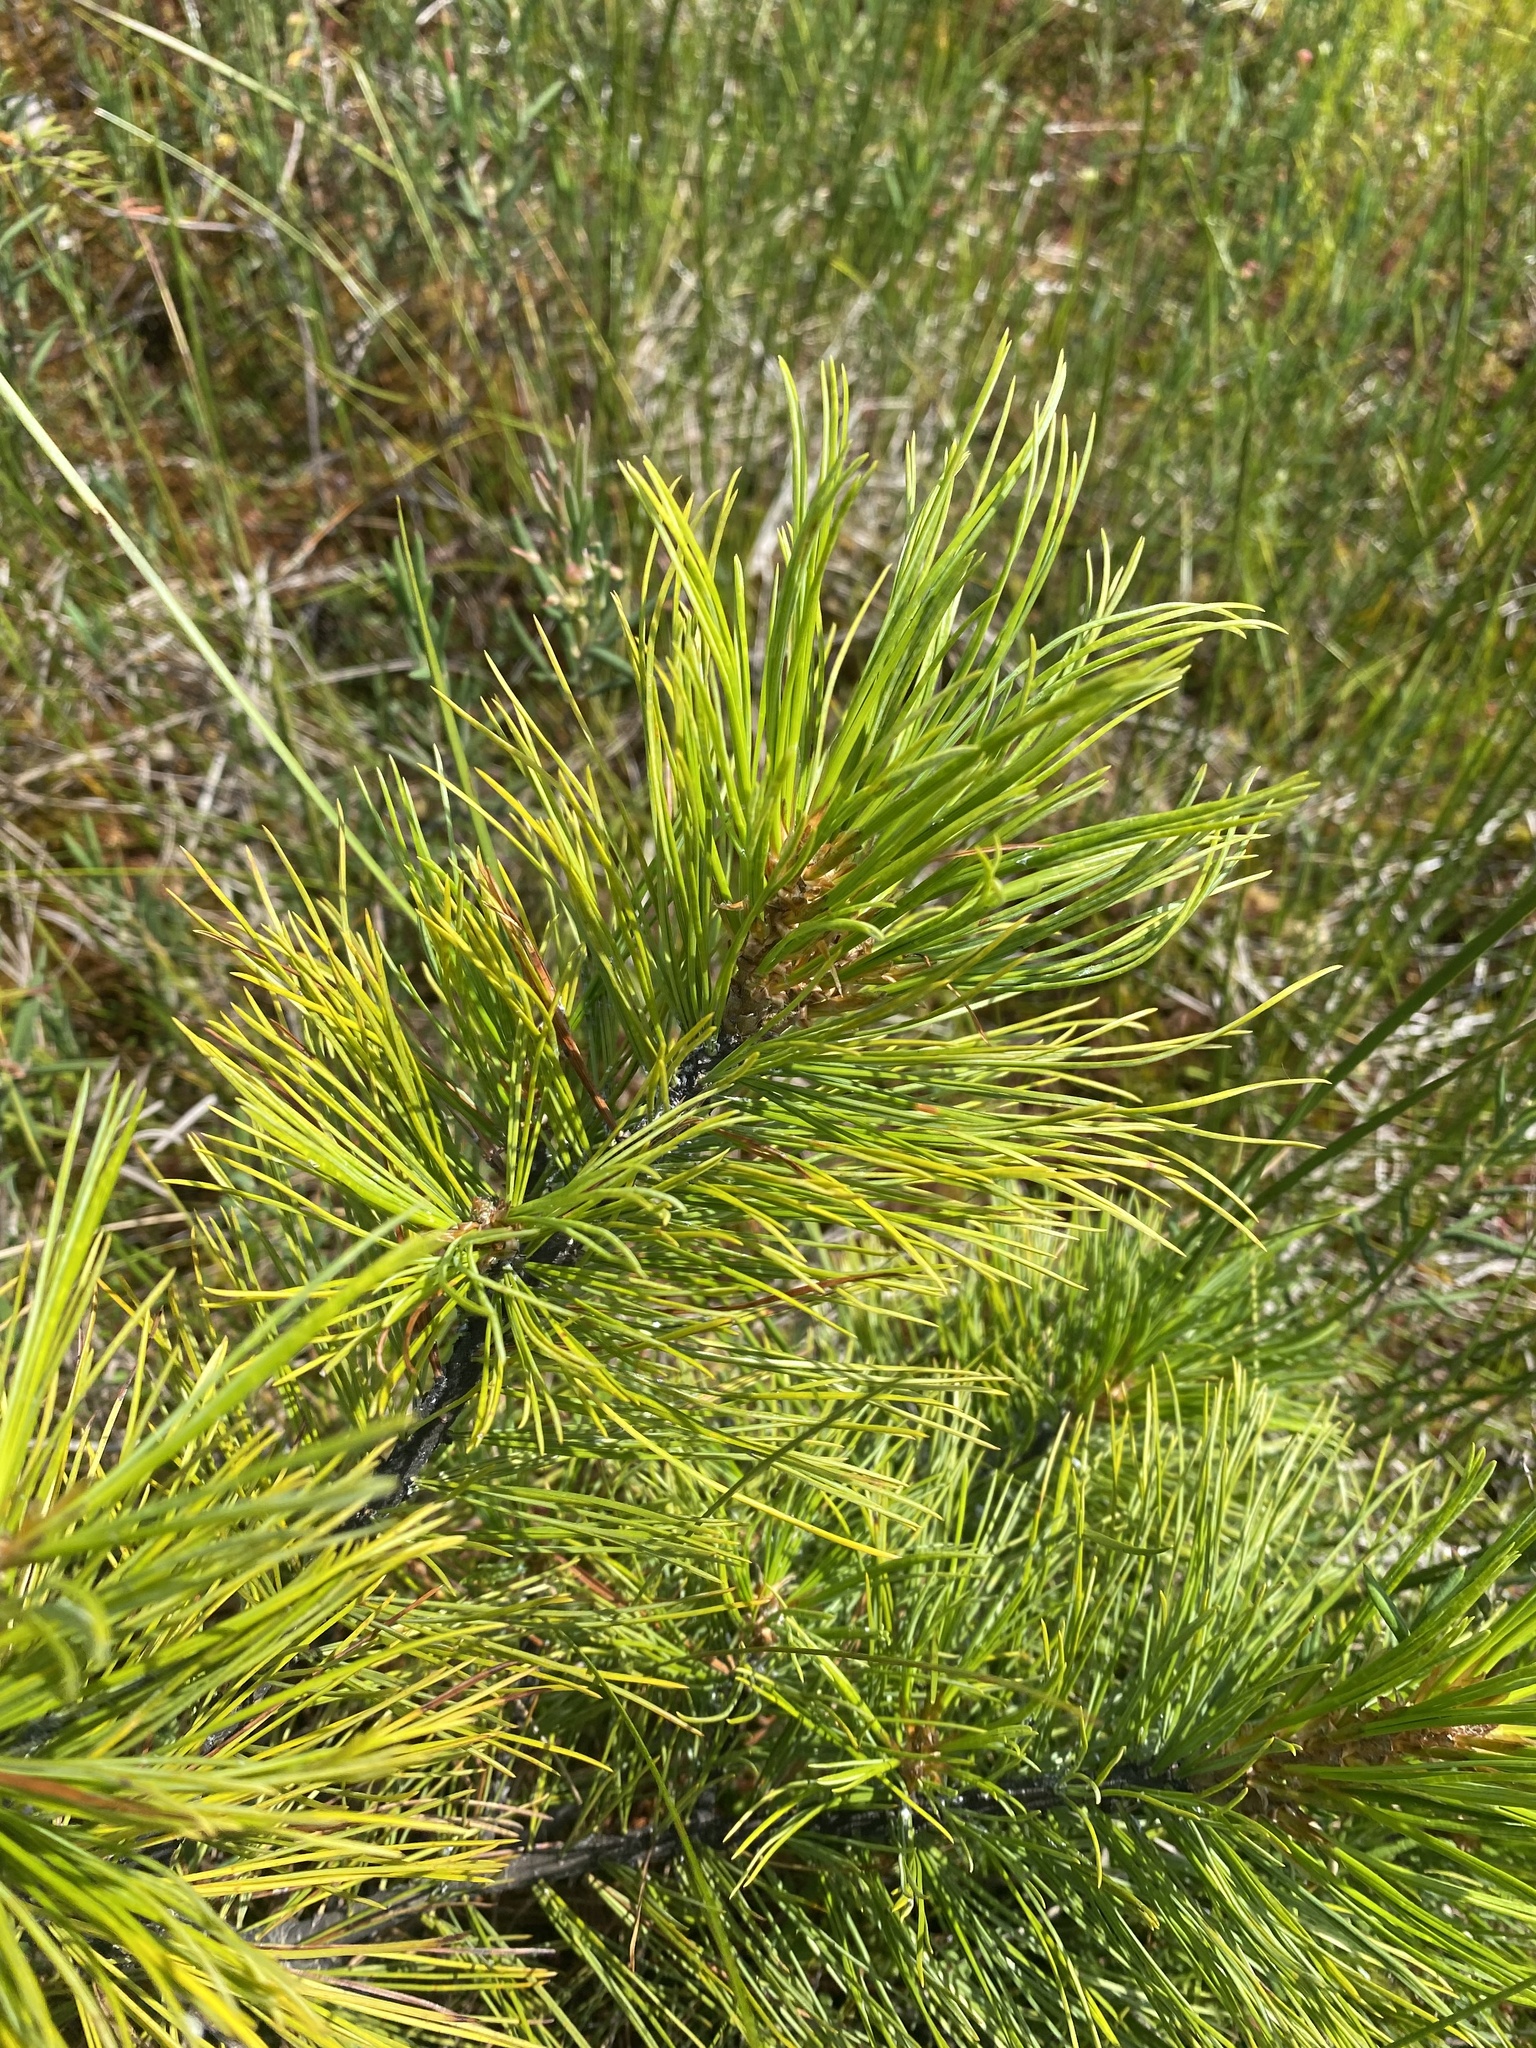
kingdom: Plantae
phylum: Tracheophyta
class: Pinopsida
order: Pinales
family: Pinaceae
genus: Pinus
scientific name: Pinus sibirica
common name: Siberian pine
